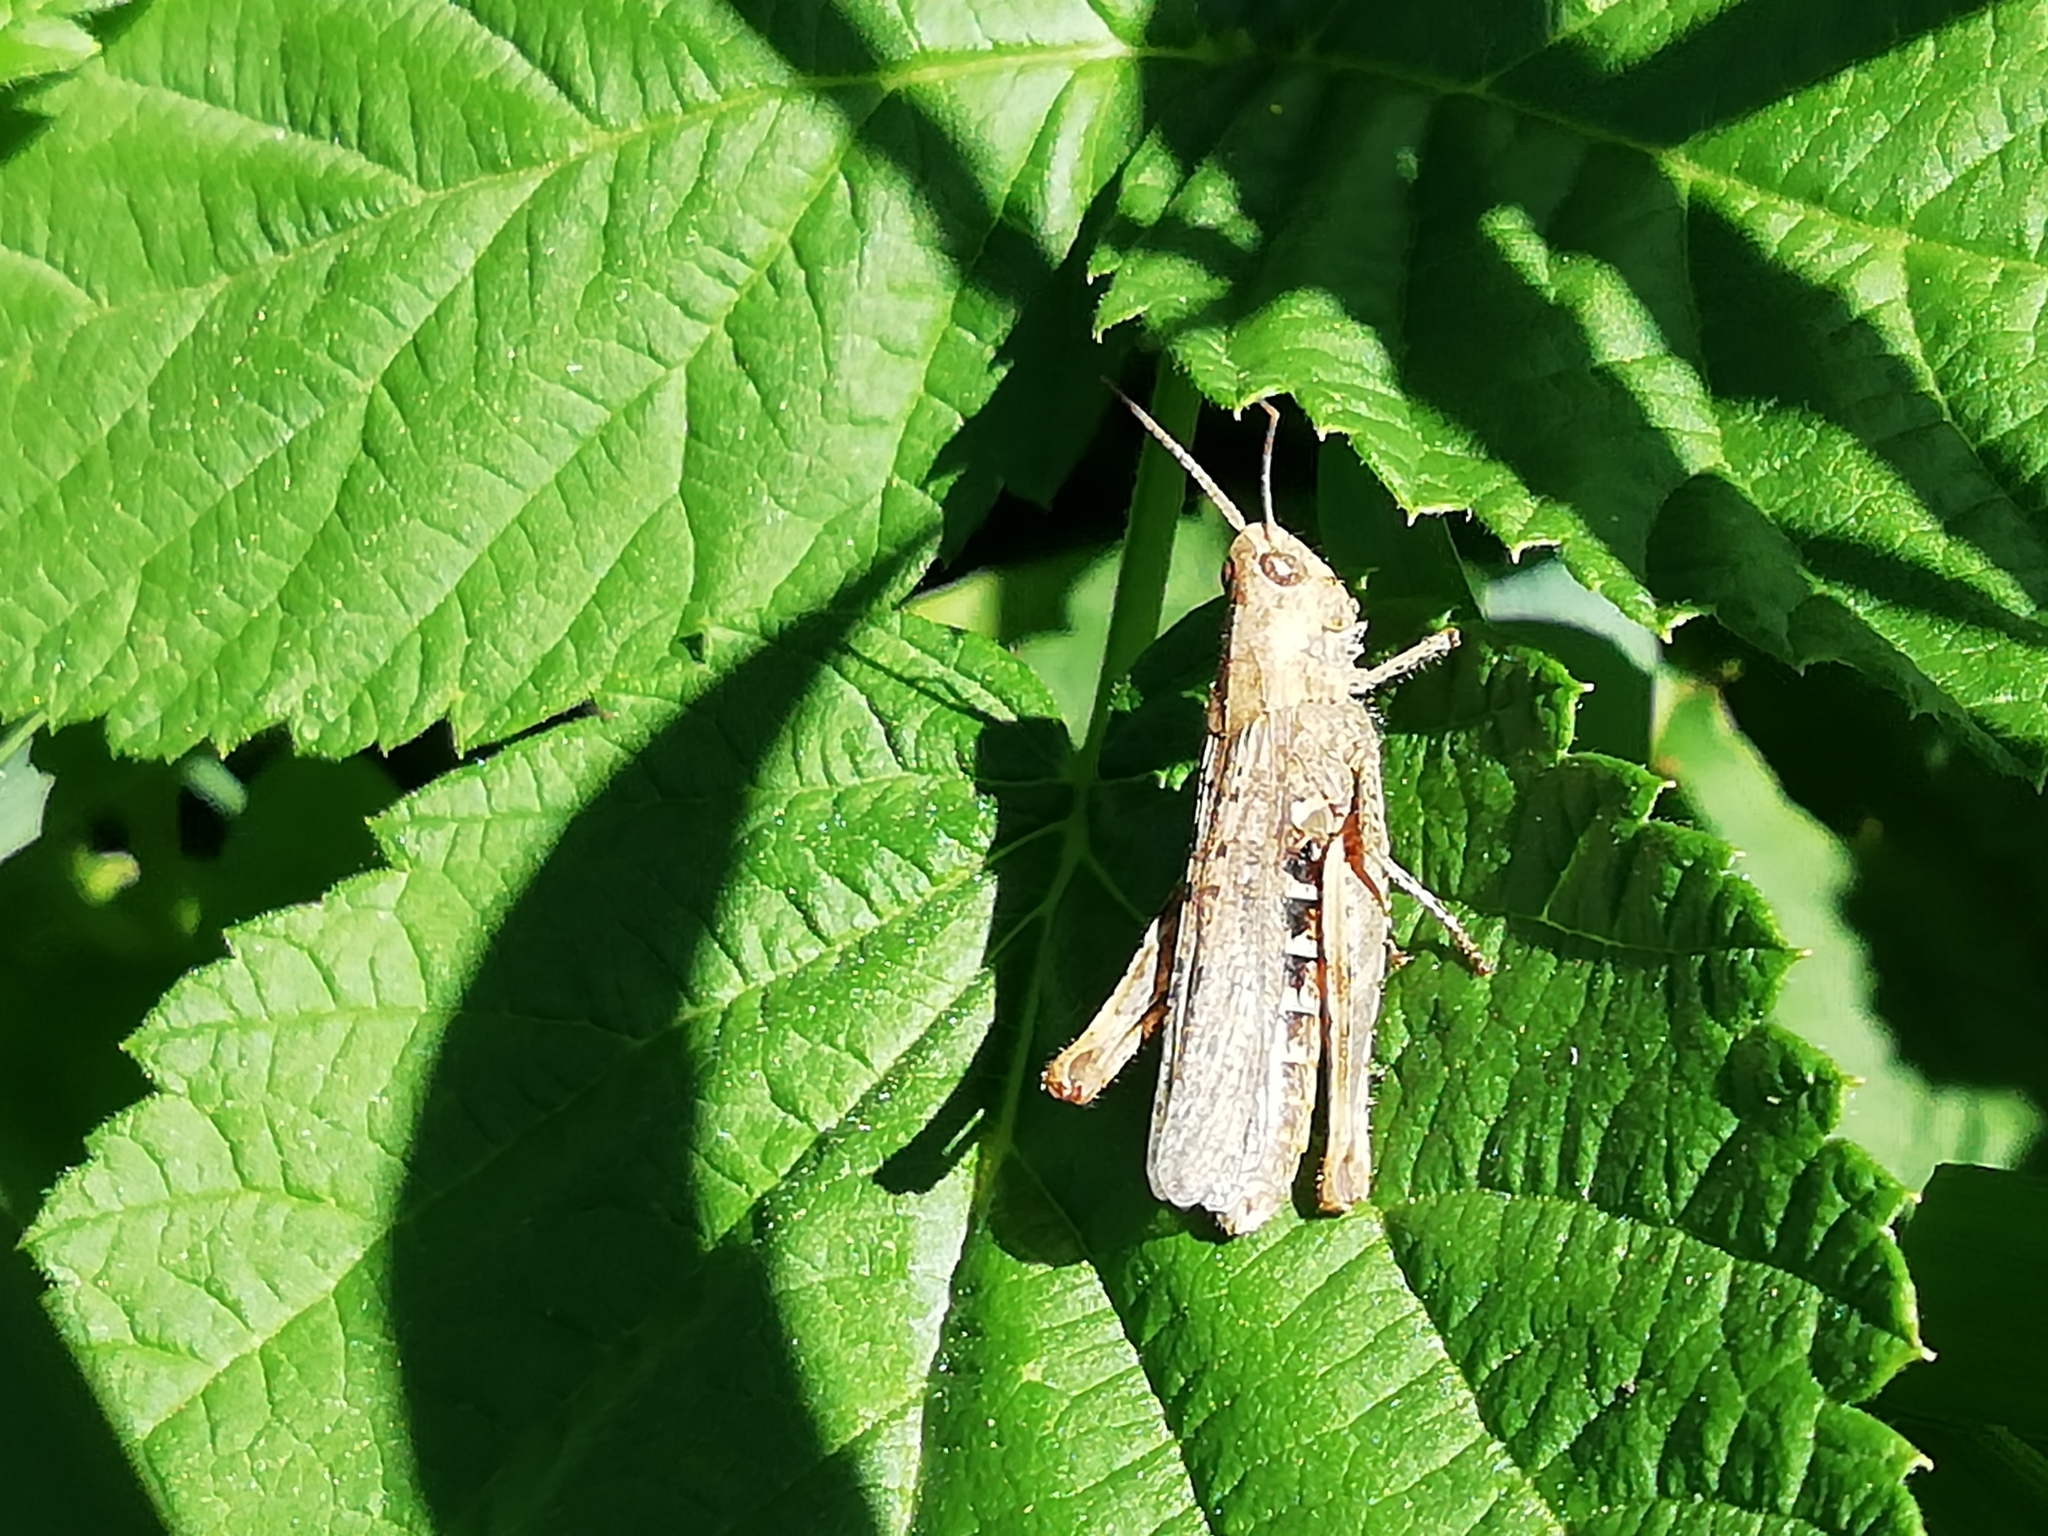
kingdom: Animalia
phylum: Arthropoda
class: Insecta
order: Orthoptera
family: Acrididae
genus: Chorthippus
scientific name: Chorthippus biguttulus
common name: Bow-winged grasshopper
